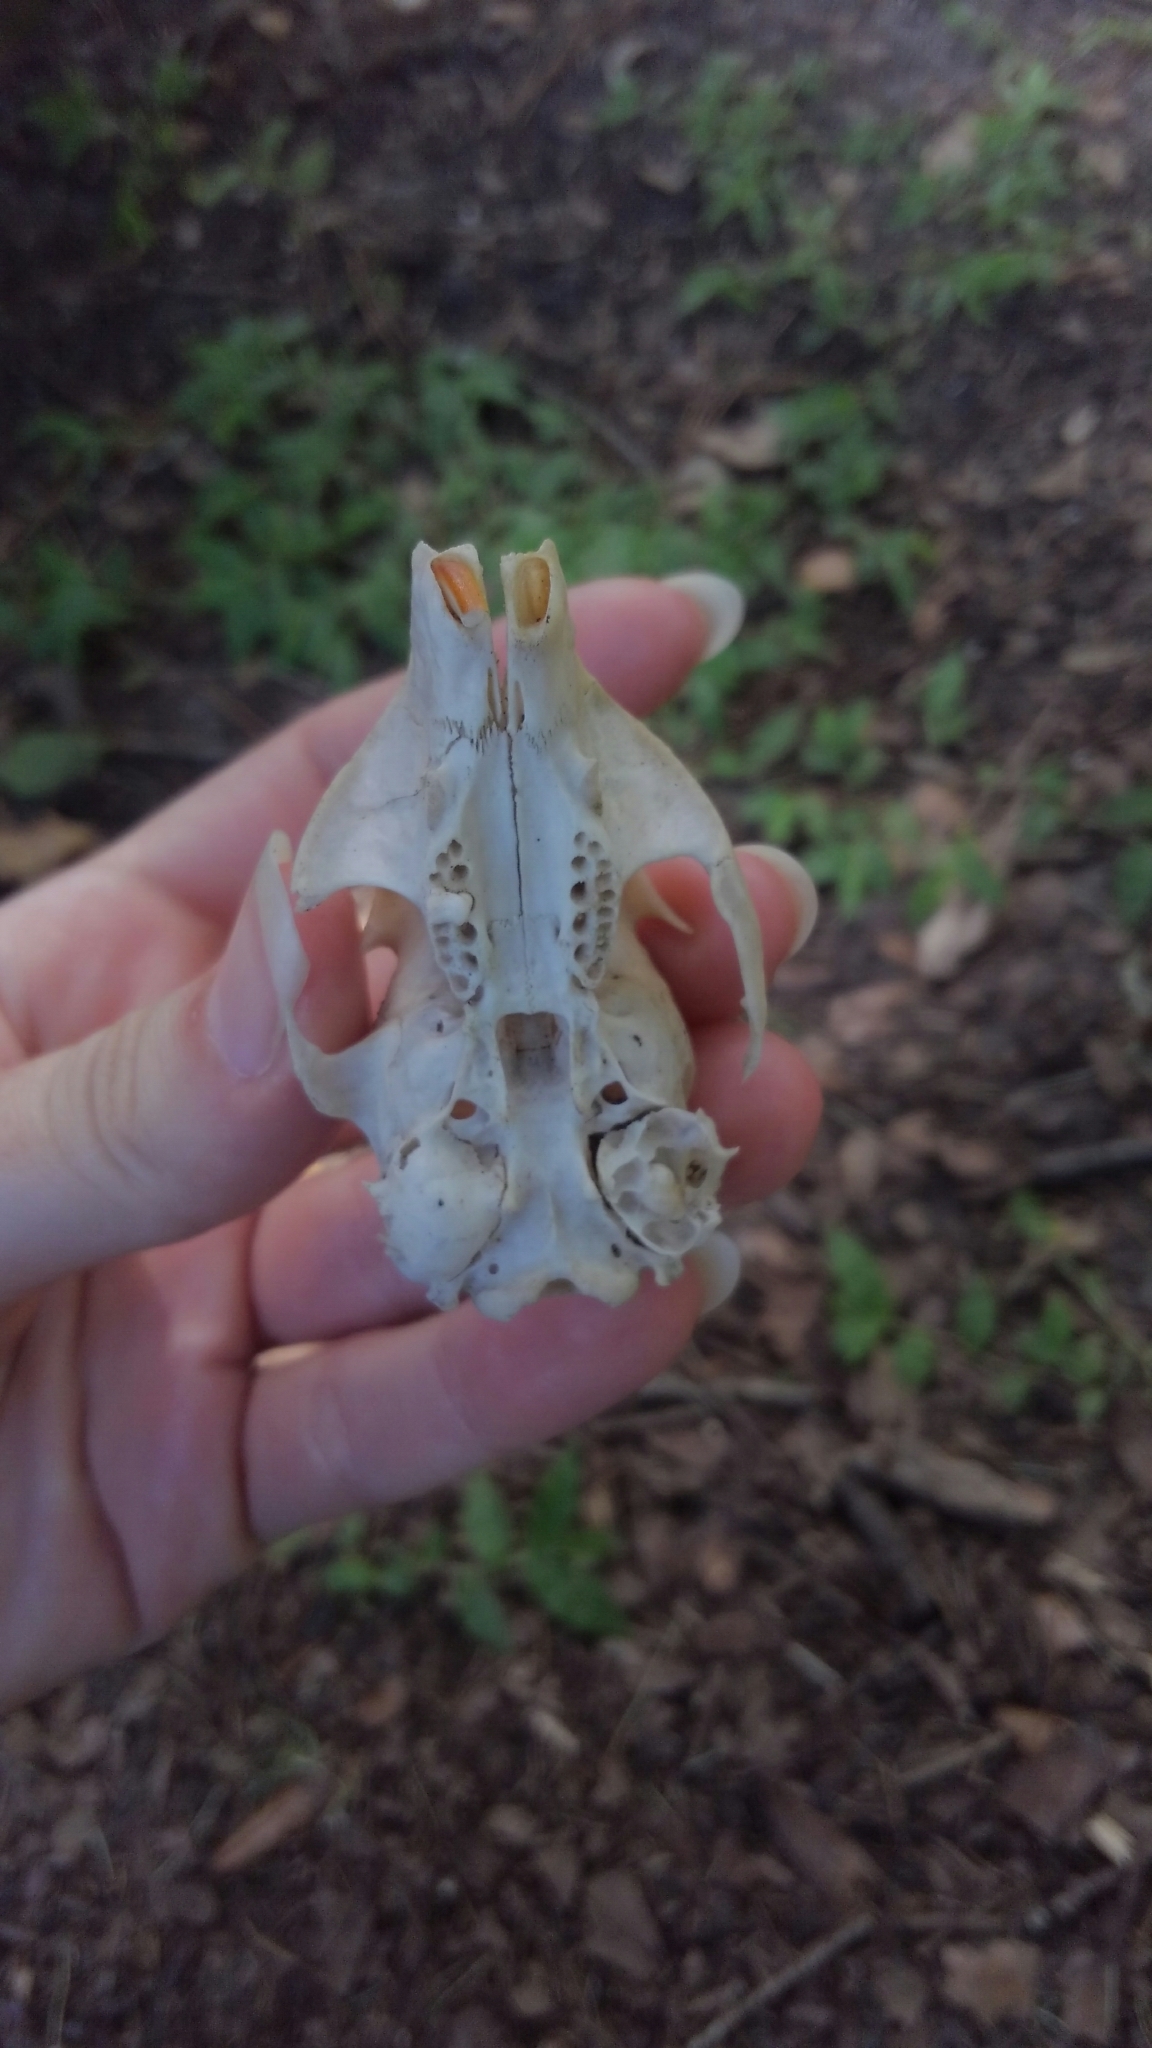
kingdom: Animalia
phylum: Chordata
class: Mammalia
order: Rodentia
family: Sciuridae
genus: Sciurus
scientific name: Sciurus carolinensis
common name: Eastern gray squirrel
